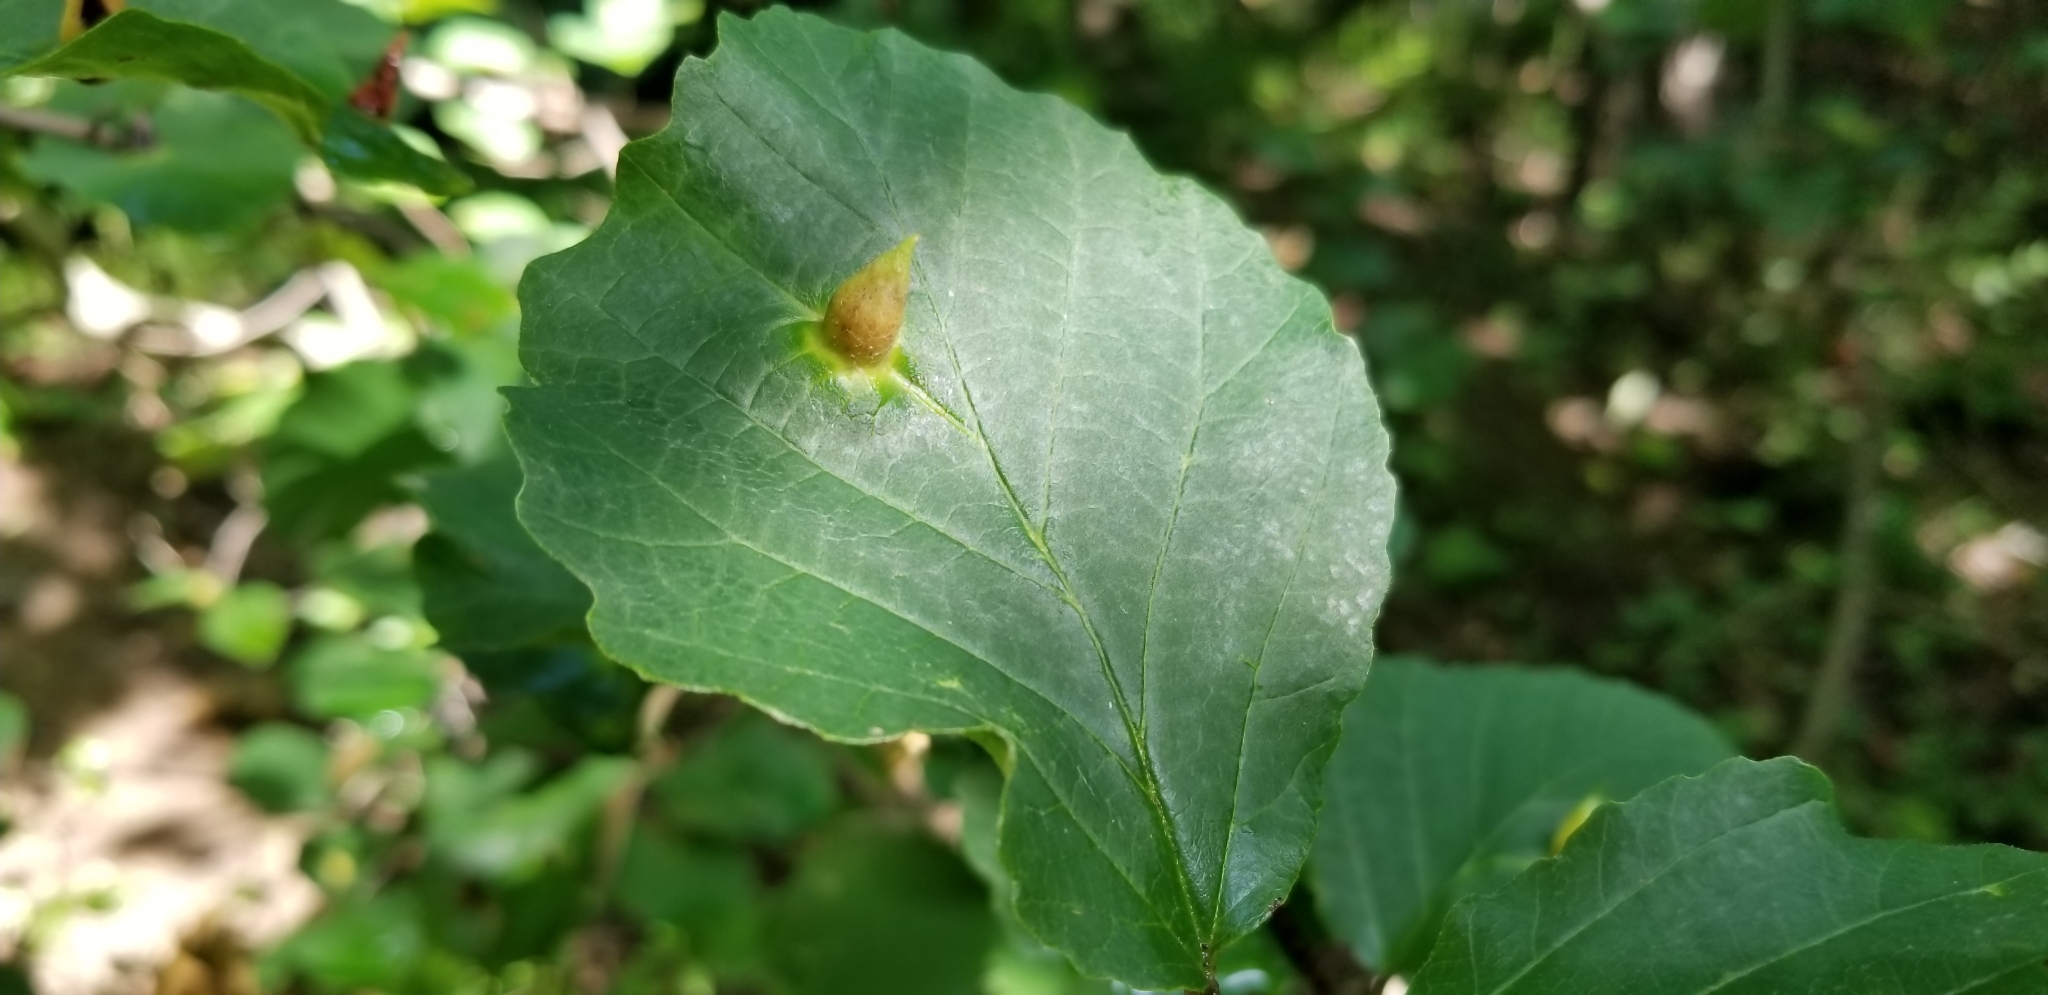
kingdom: Animalia
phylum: Arthropoda
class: Insecta
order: Hemiptera
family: Aphididae
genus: Hormaphis
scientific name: Hormaphis hamamelidis
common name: Witch-hazel cone gall aphid
